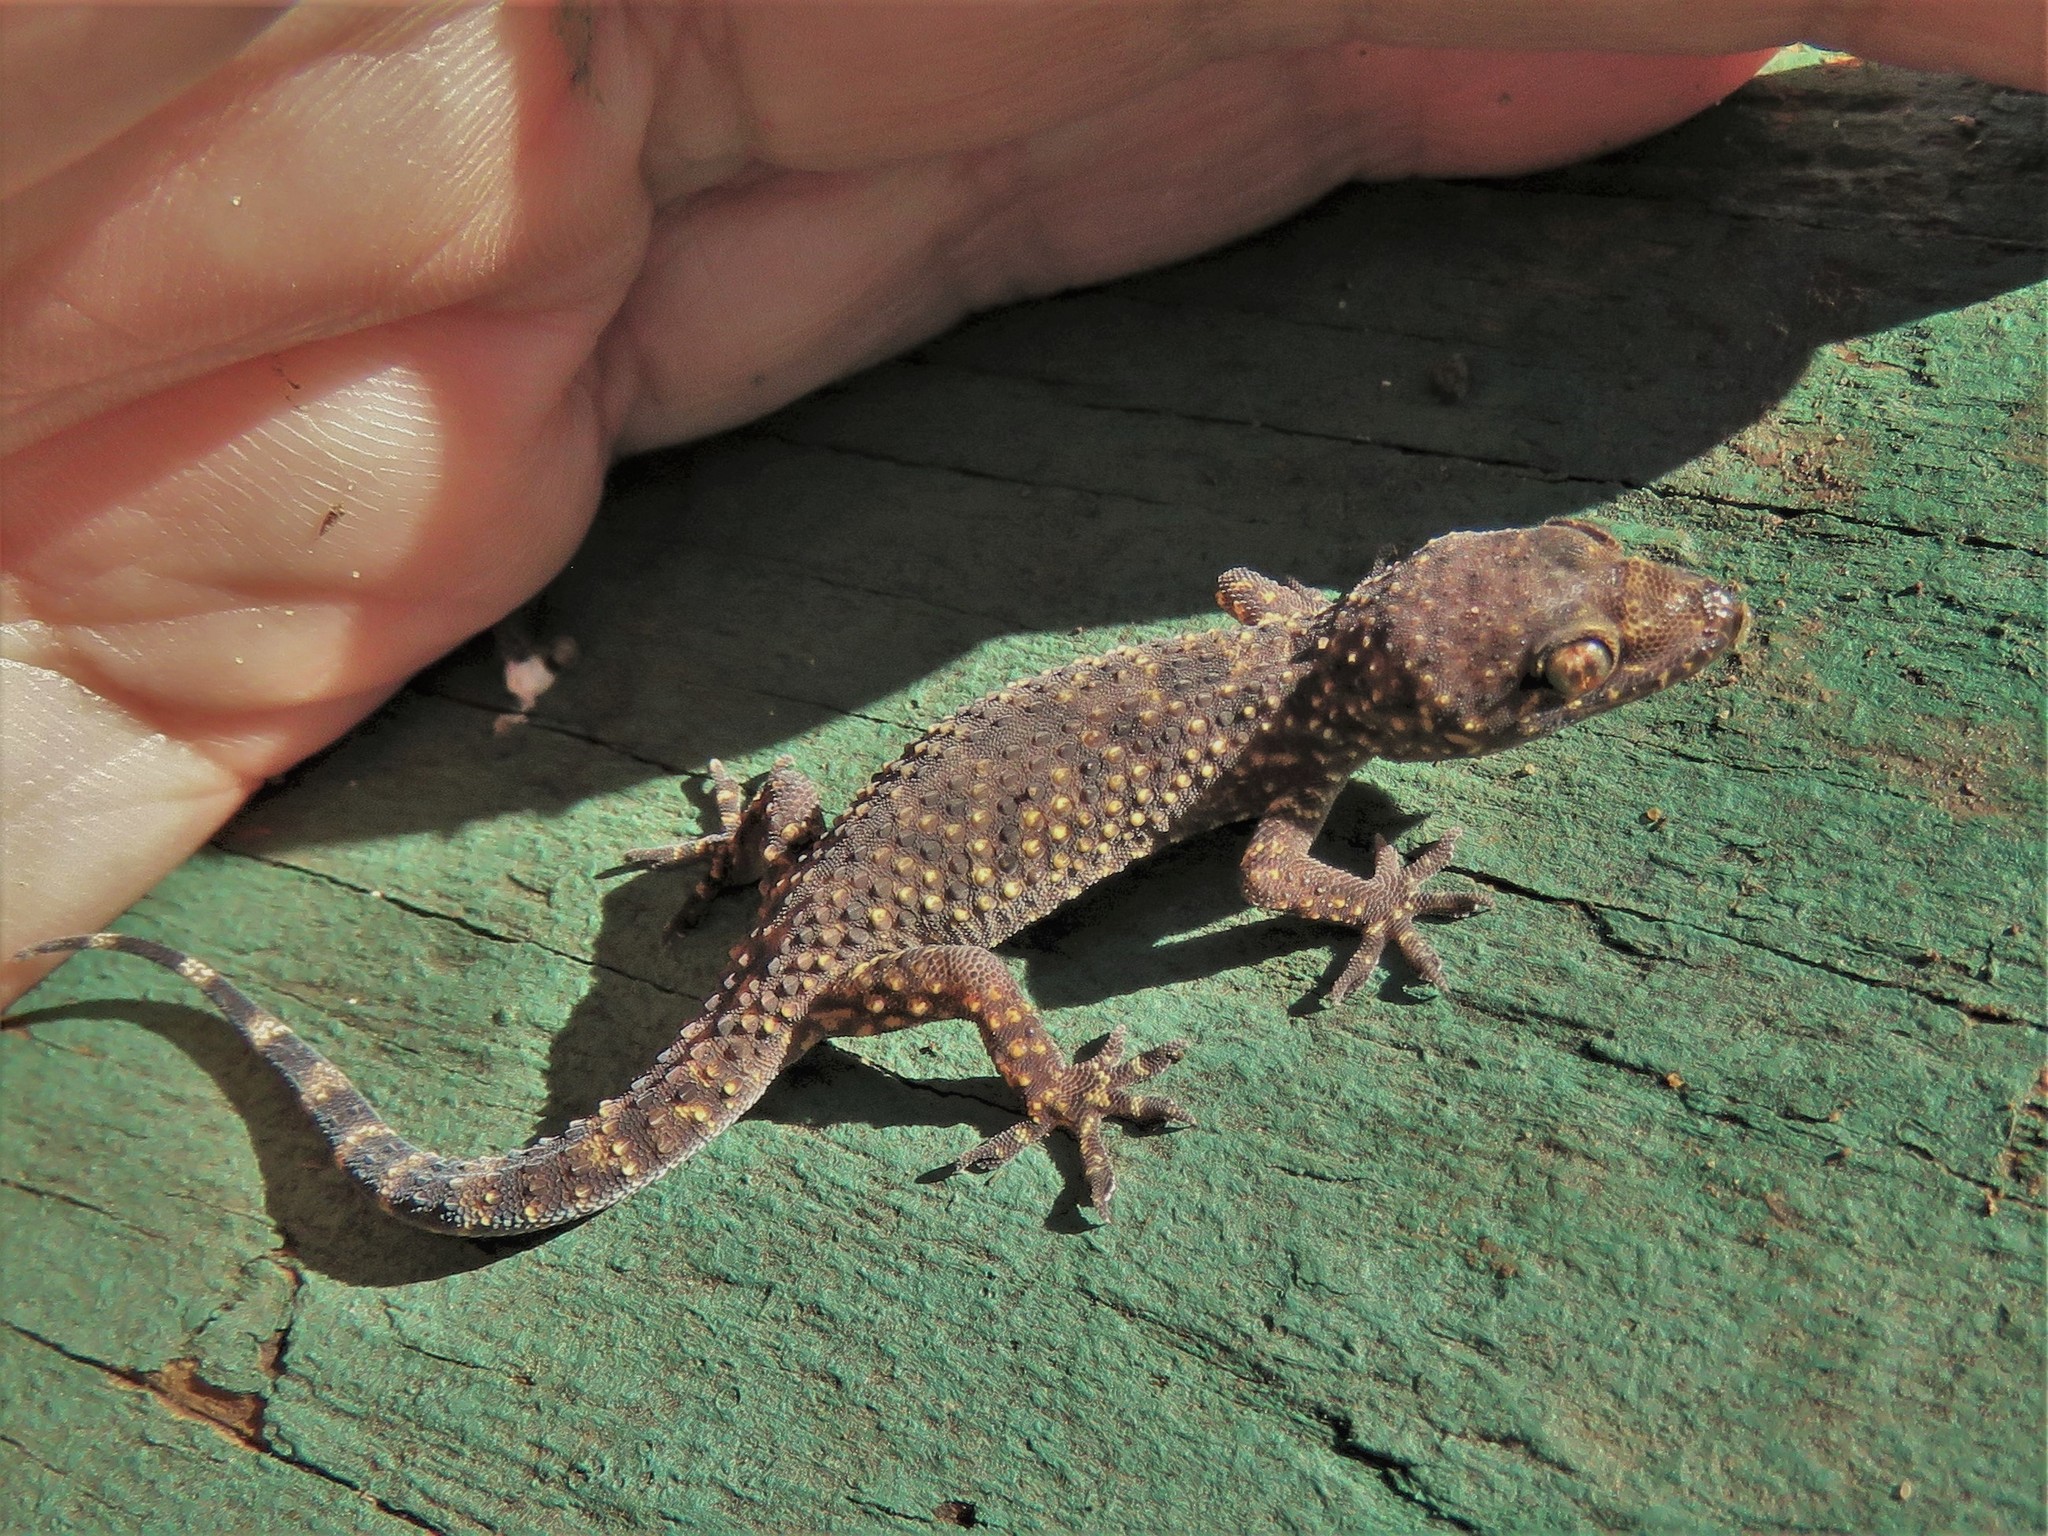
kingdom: Animalia
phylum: Chordata
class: Squamata
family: Gekkonidae
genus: Hemidactylus
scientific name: Hemidactylus turcicus
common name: Turkish gecko
